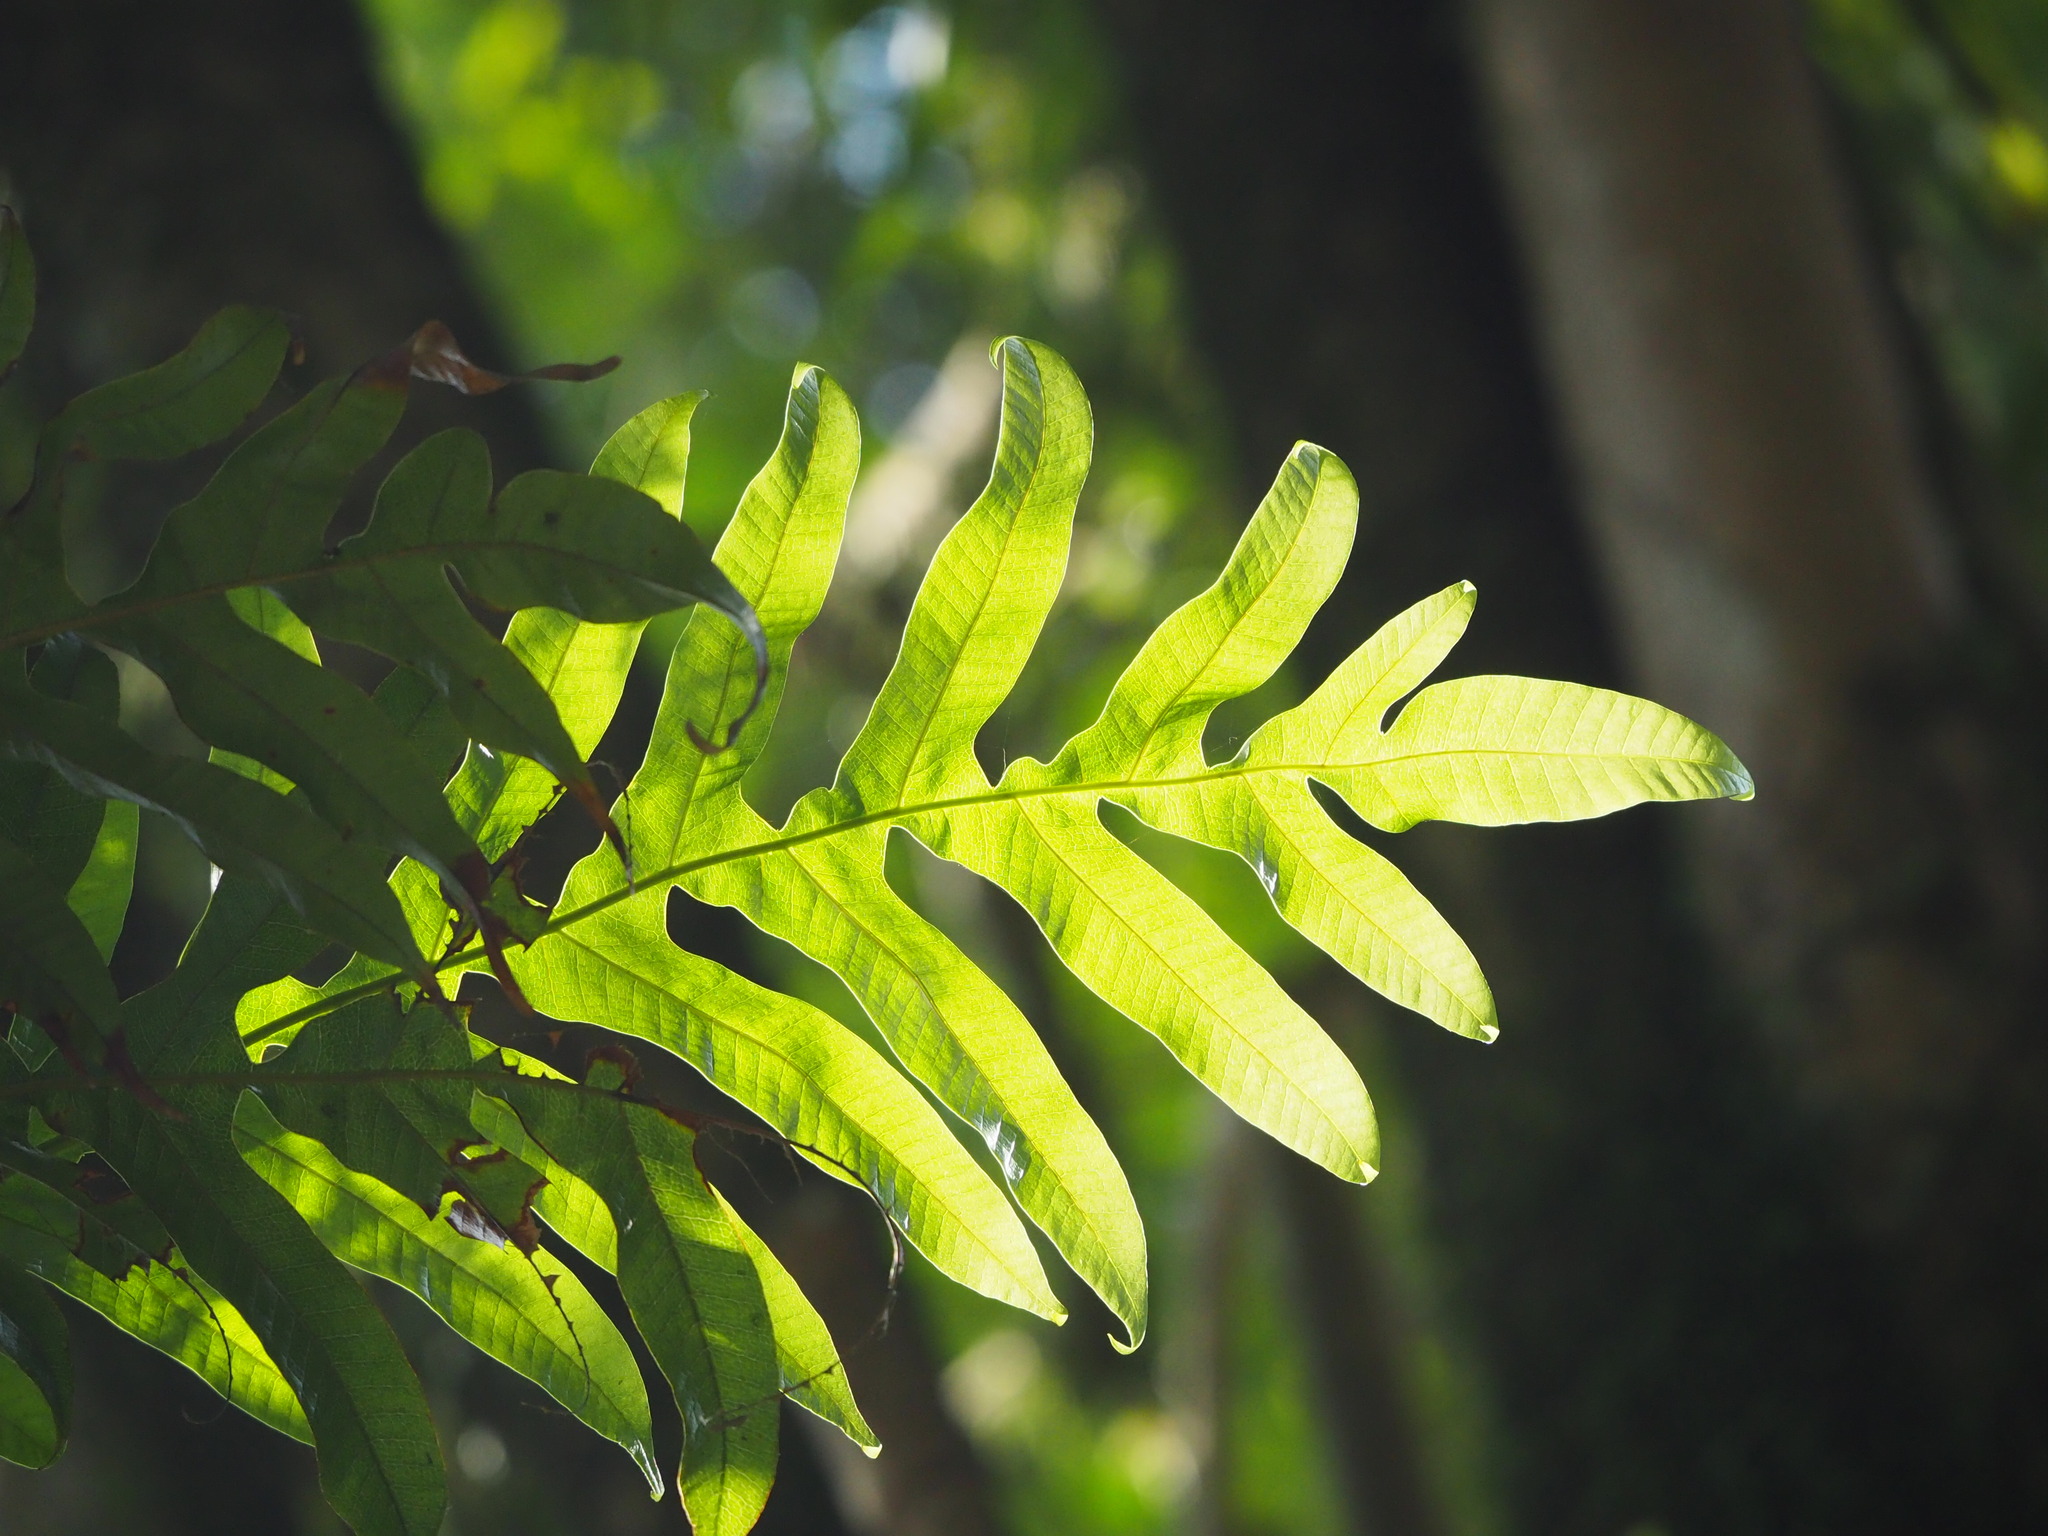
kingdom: Plantae
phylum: Tracheophyta
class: Polypodiopsida
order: Polypodiales
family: Polypodiaceae
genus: Drynaria
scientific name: Drynaria coronans
